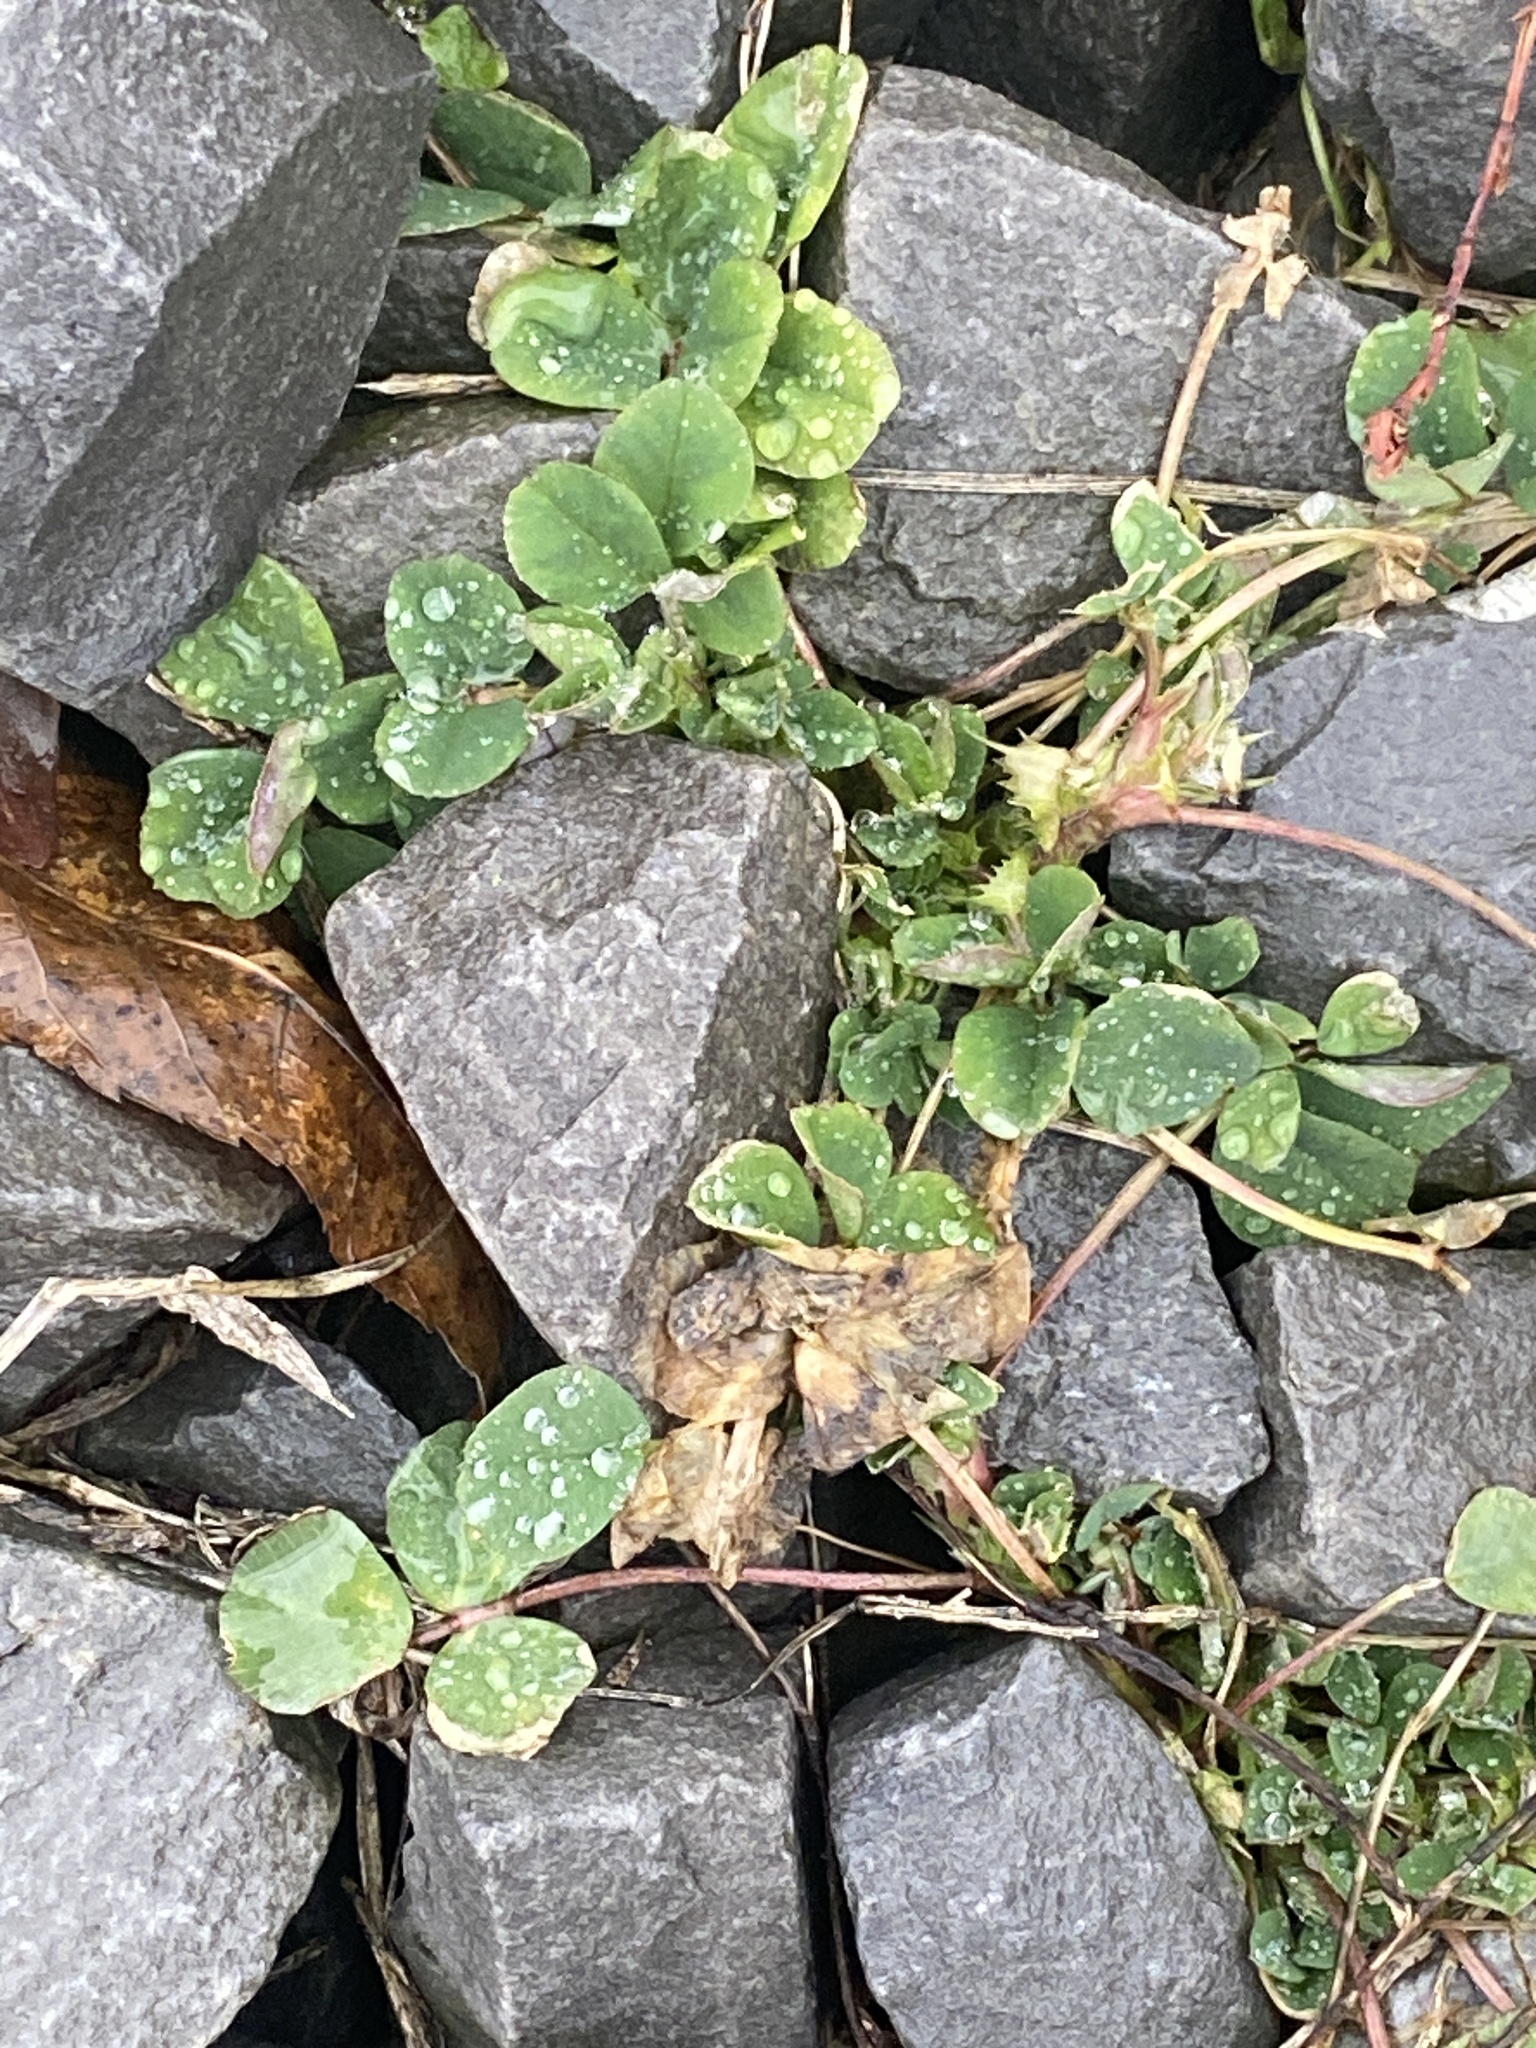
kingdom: Plantae
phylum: Tracheophyta
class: Magnoliopsida
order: Fabales
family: Fabaceae
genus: Medicago
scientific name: Medicago lupulina
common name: Black medick
